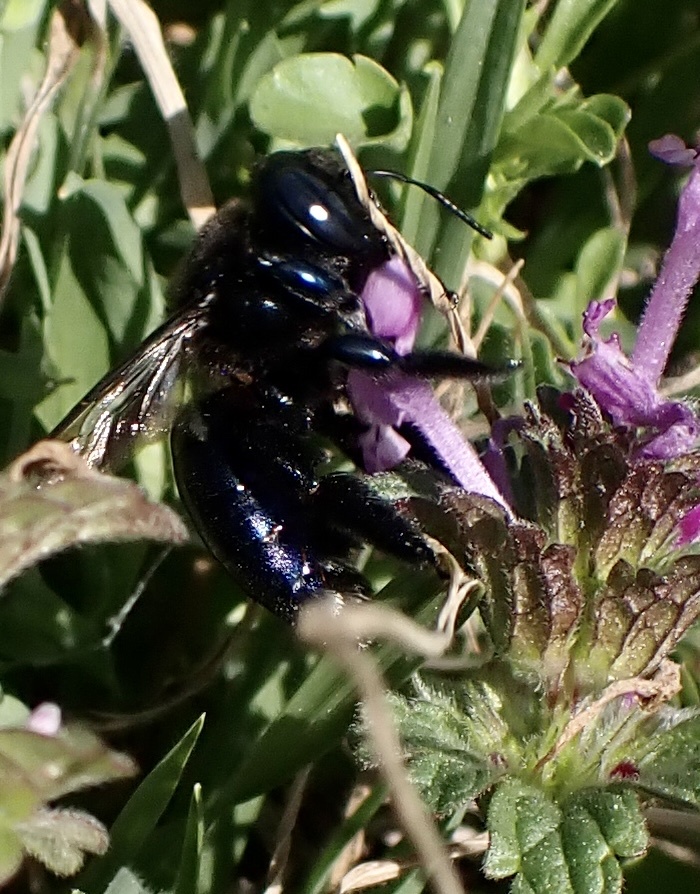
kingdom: Animalia
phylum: Arthropoda
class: Insecta
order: Hymenoptera
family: Apidae
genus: Xylocopa
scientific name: Xylocopa micans
